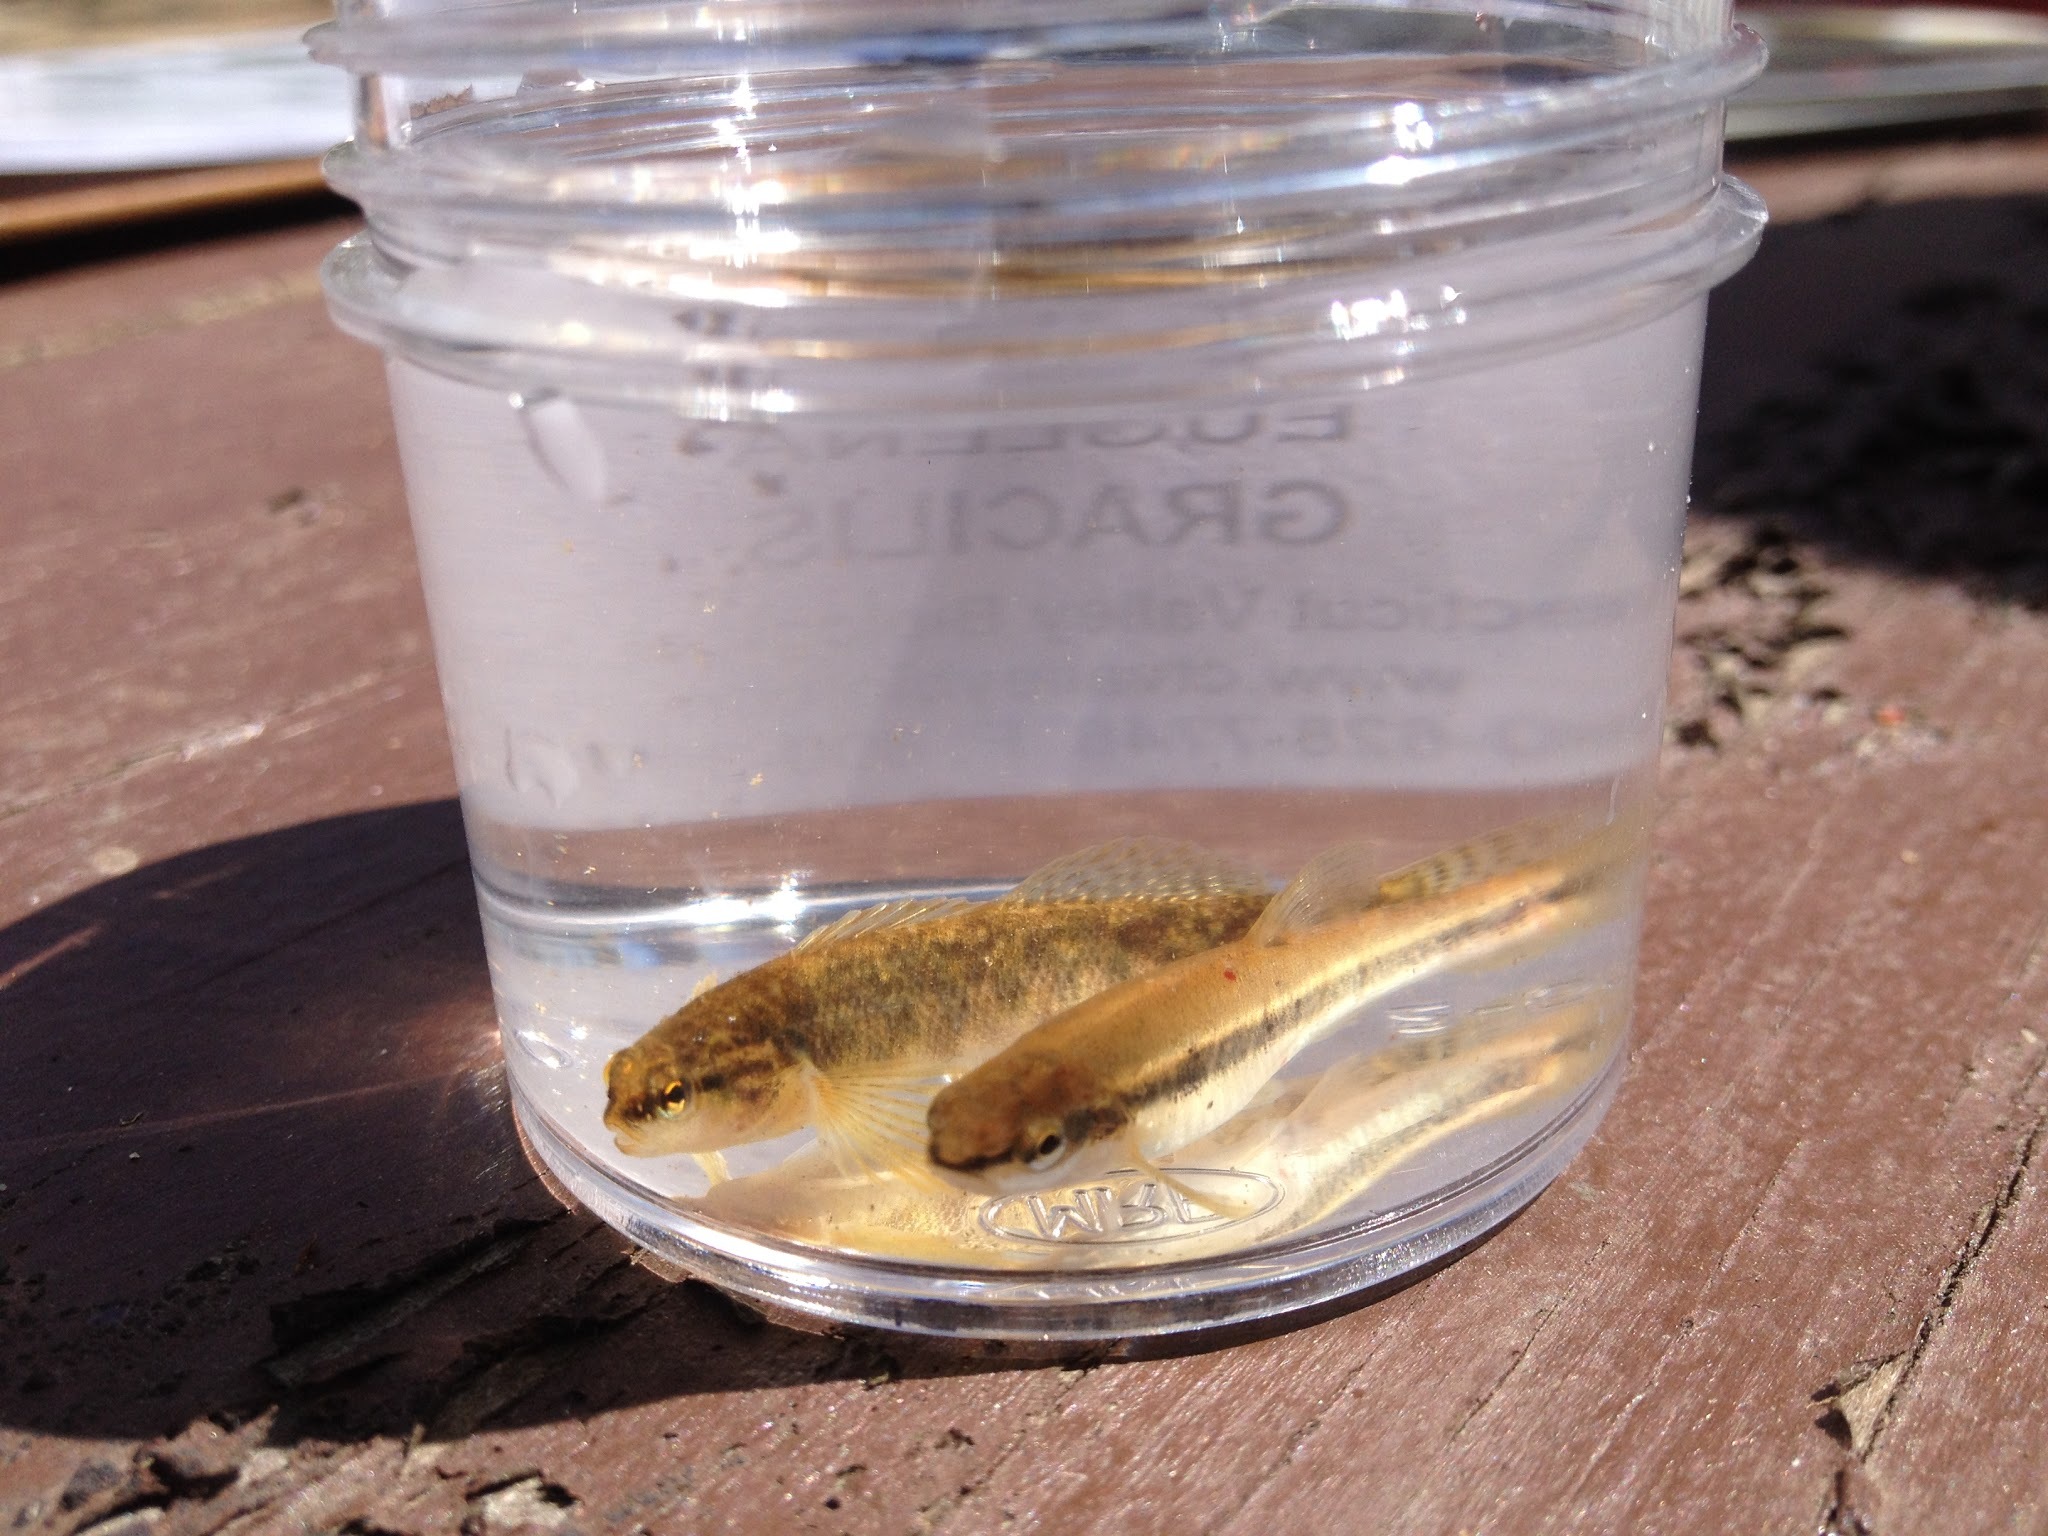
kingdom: Animalia
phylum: Chordata
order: Cypriniformes
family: Cyprinidae
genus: Rhinichthys
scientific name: Rhinichthys atratulus
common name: Eastern blacknose dace
